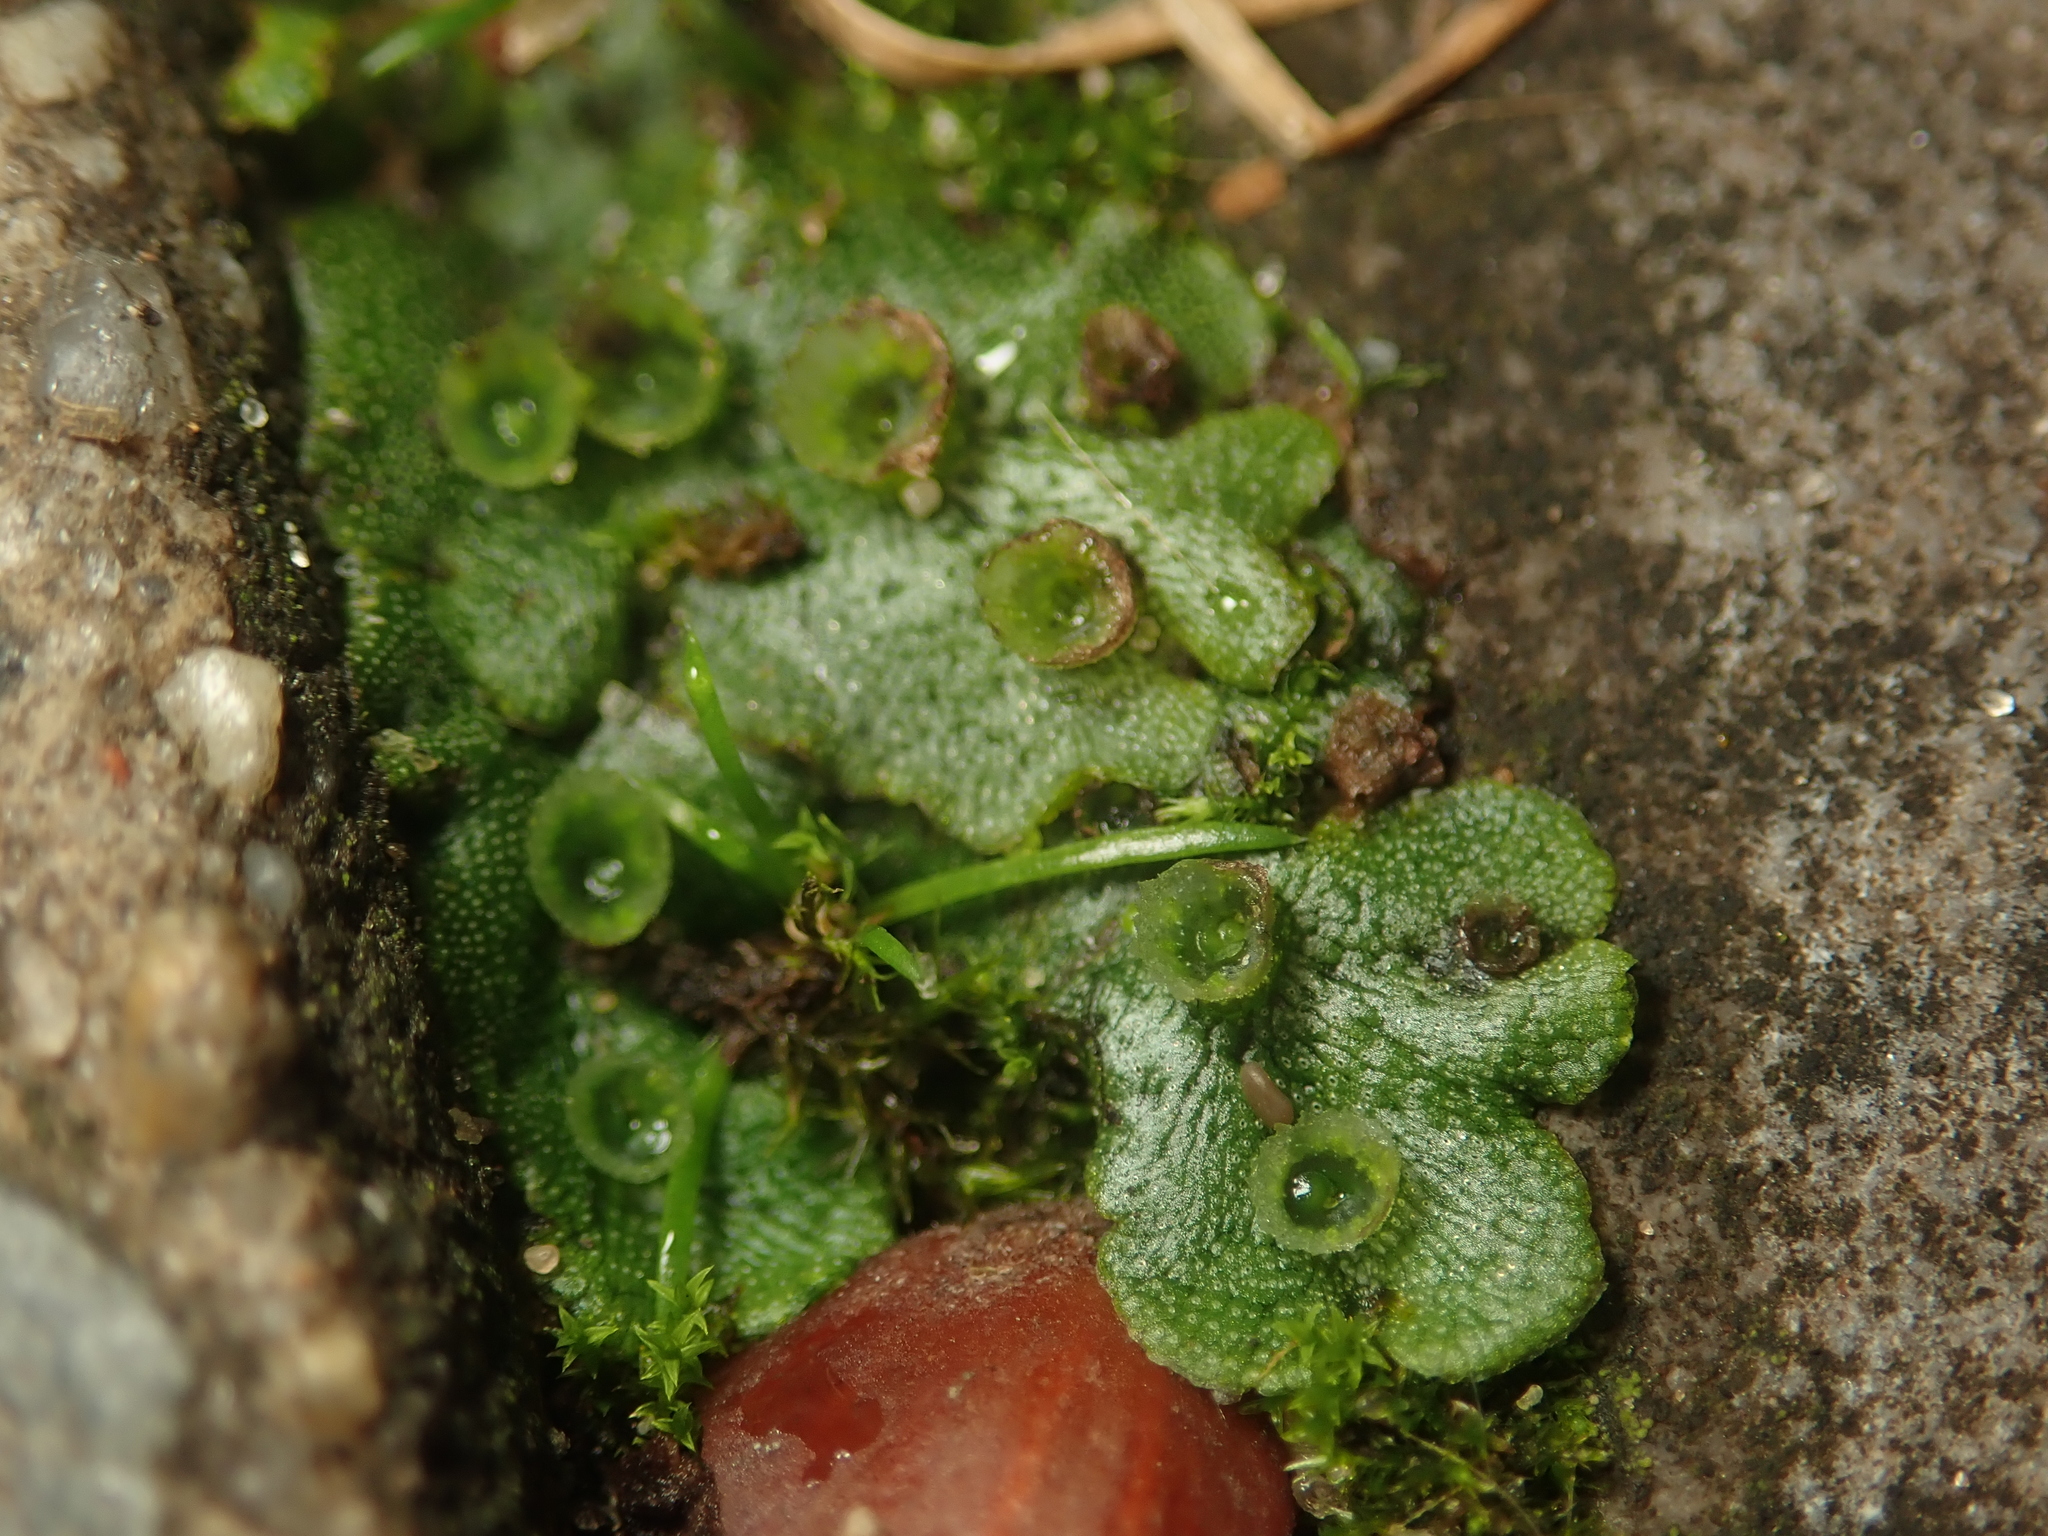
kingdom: Plantae
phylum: Marchantiophyta
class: Marchantiopsida
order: Marchantiales
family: Marchantiaceae
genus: Marchantia
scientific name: Marchantia polymorpha
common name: Common liverwort
